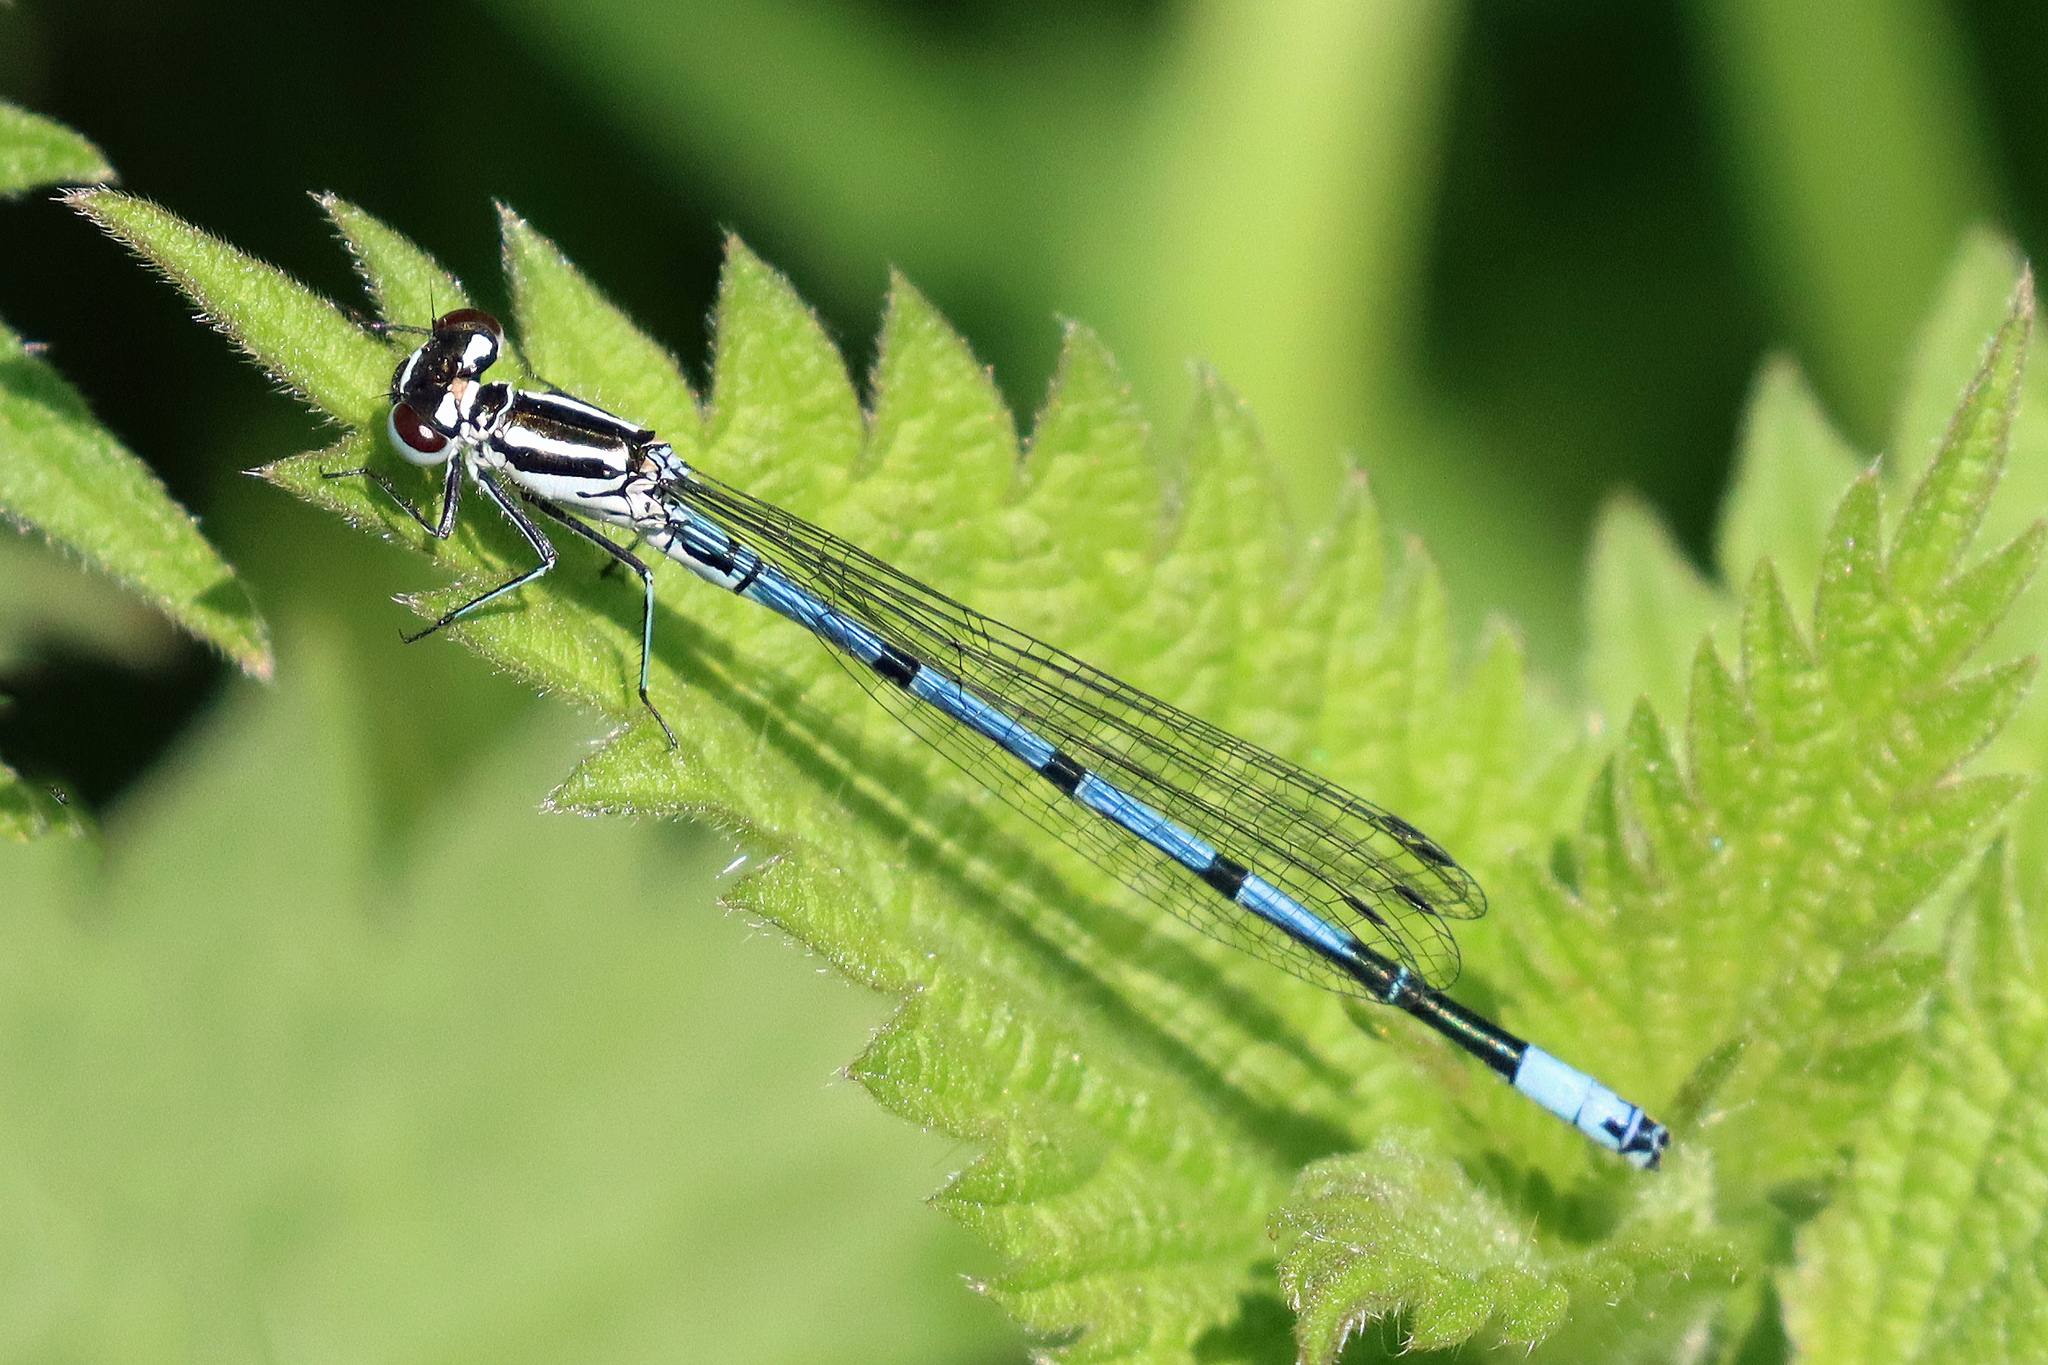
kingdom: Animalia
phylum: Arthropoda
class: Insecta
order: Odonata
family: Coenagrionidae
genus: Coenagrion
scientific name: Coenagrion puella
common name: Azure damselfly
